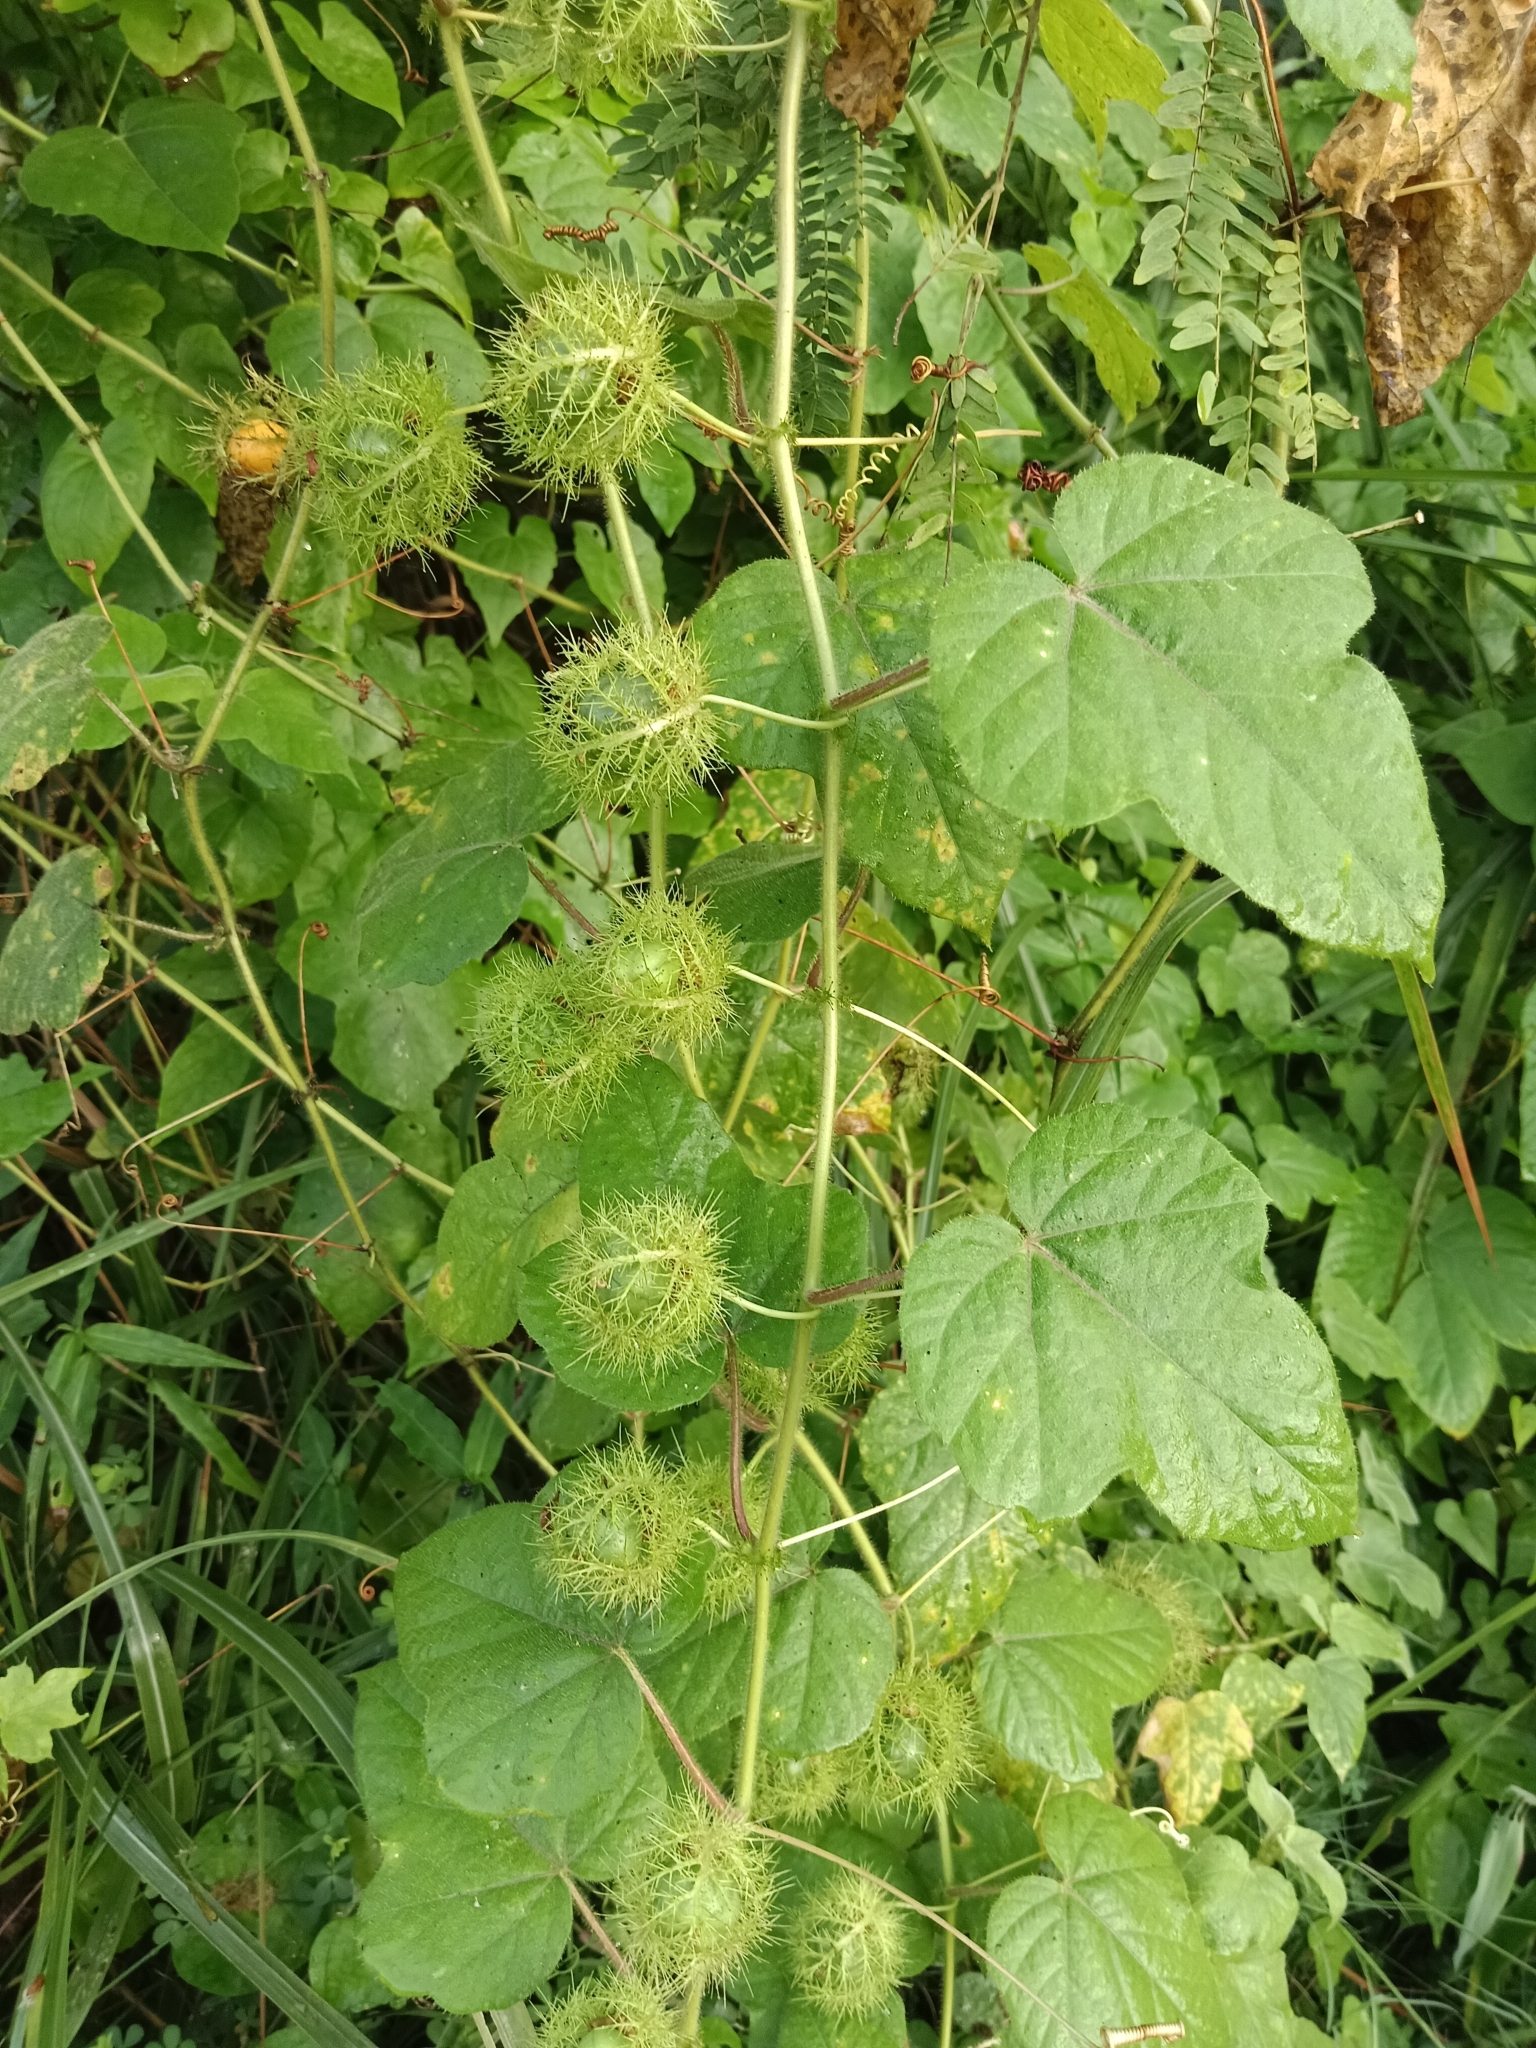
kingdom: Plantae
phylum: Tracheophyta
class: Magnoliopsida
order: Malpighiales
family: Passifloraceae
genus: Passiflora
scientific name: Passiflora vesicaria
